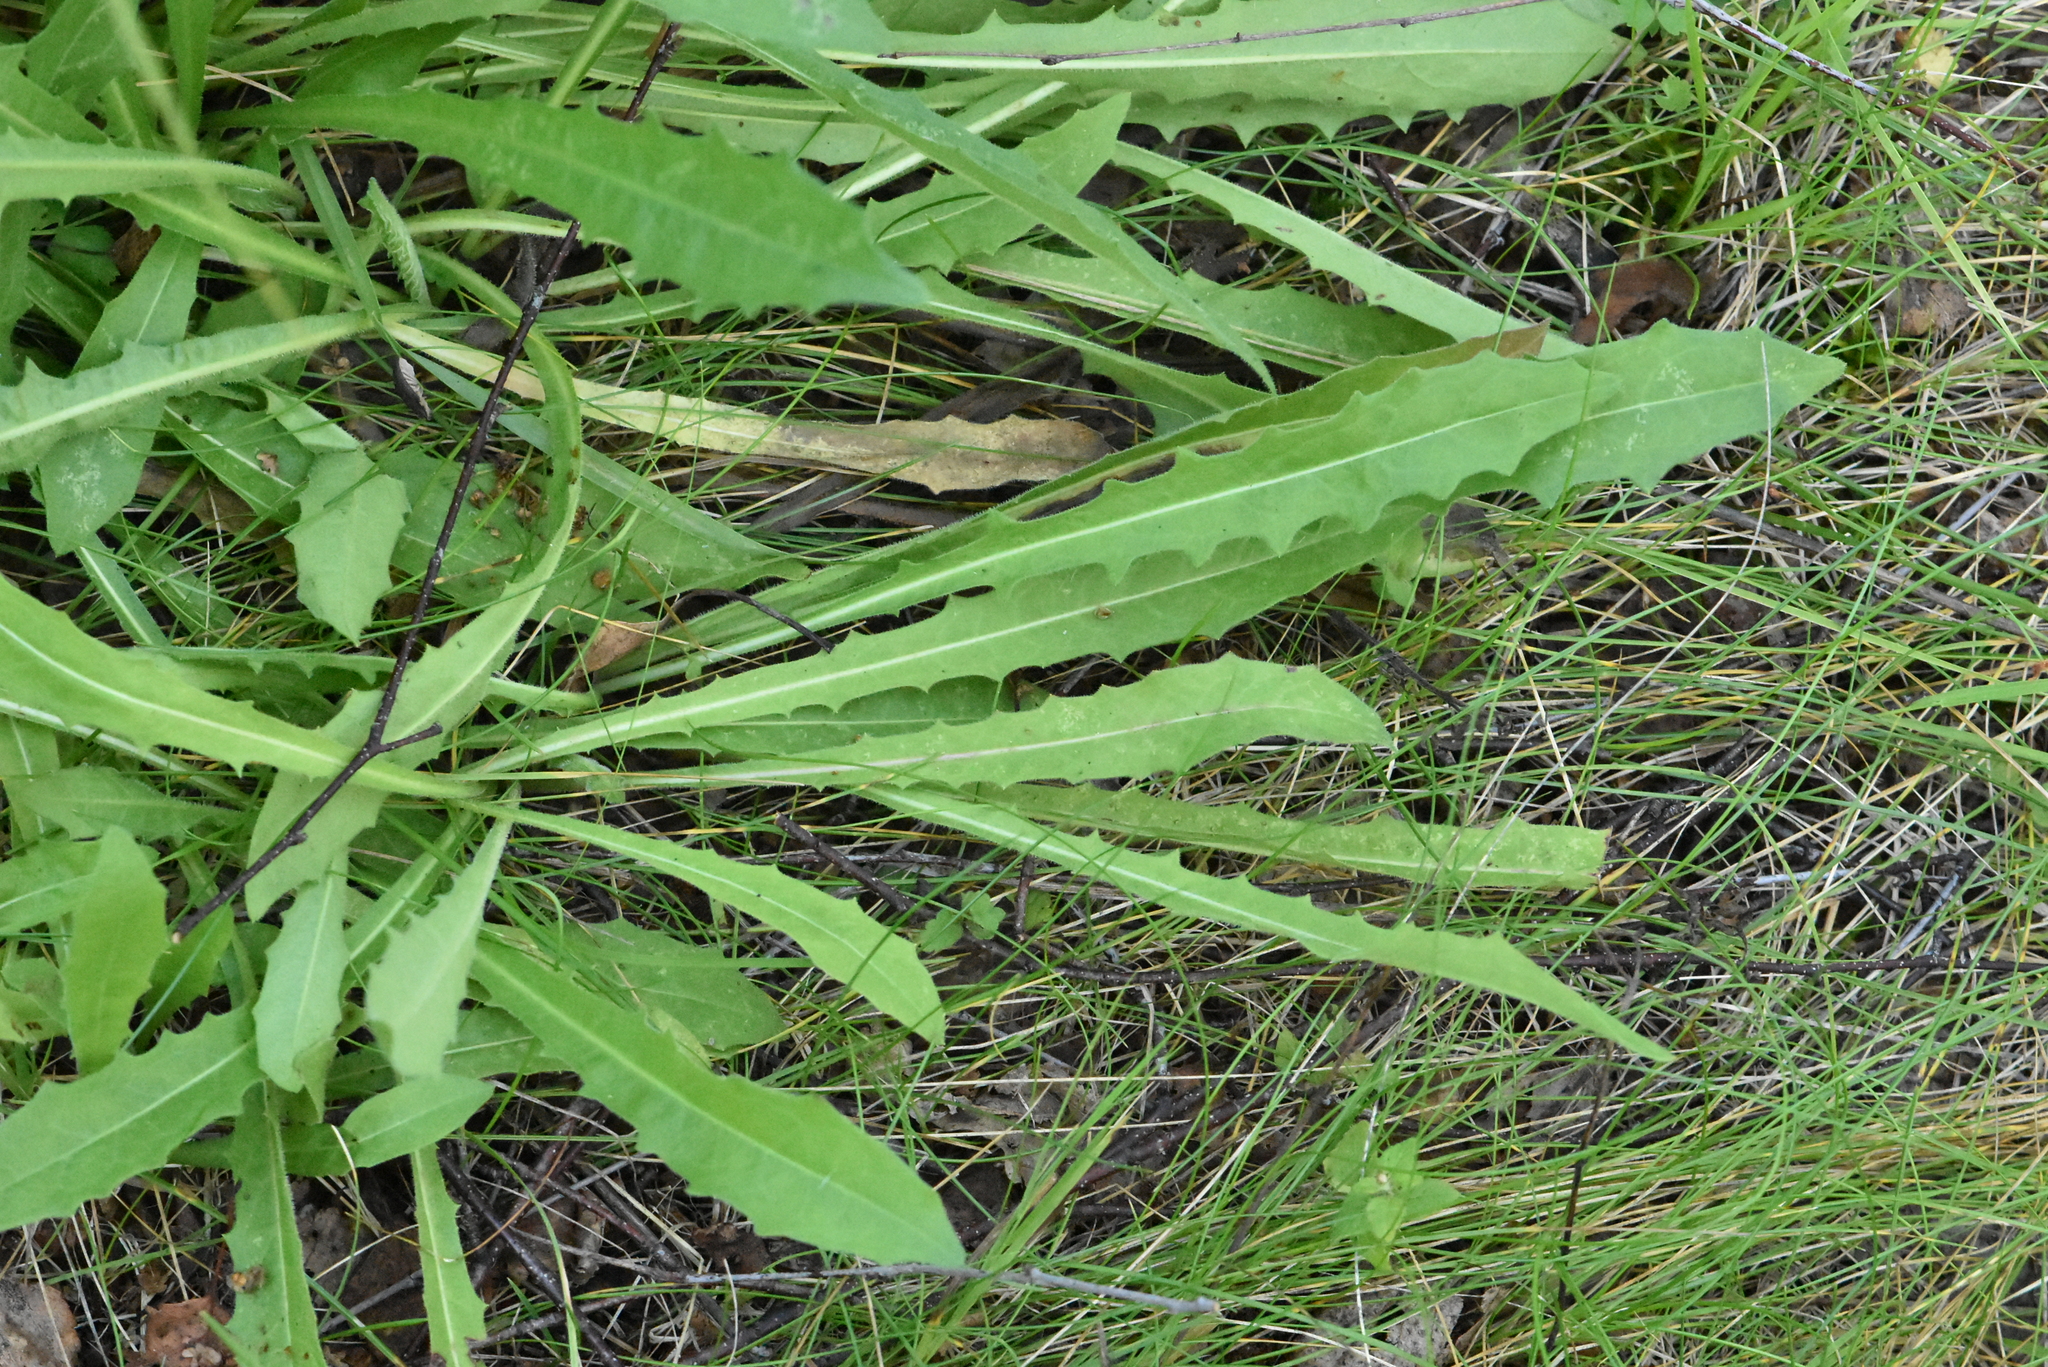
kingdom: Plantae
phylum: Tracheophyta
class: Magnoliopsida
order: Asterales
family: Asteraceae
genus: Leontodon
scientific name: Leontodon hispidus
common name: Rough hawkbit
